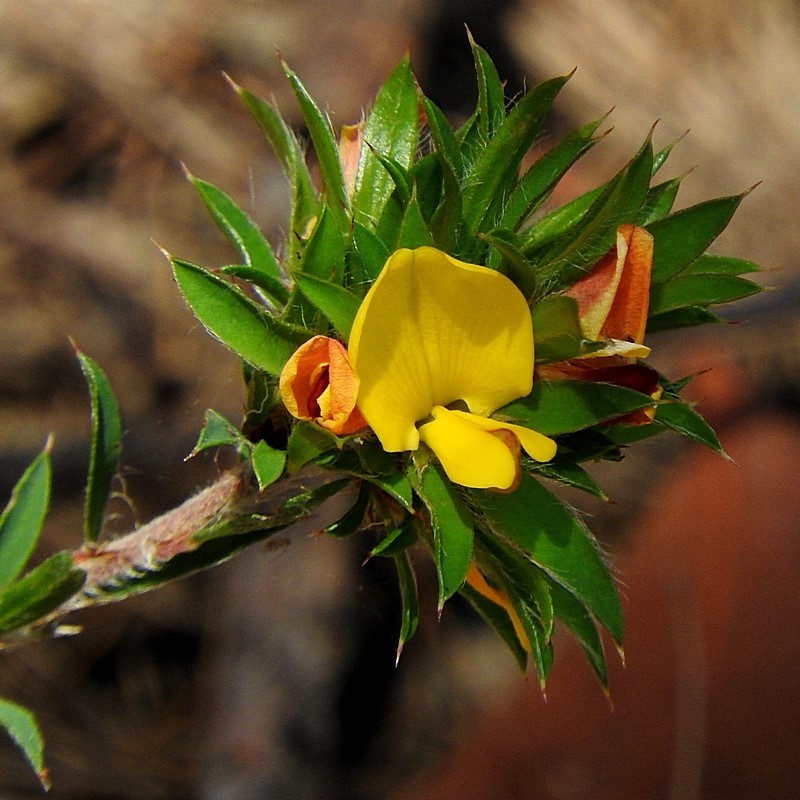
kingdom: Plantae
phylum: Tracheophyta
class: Magnoliopsida
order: Fabales
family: Fabaceae
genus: Pultenaea
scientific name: Pultenaea villifera
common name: Yellow bush-pea
